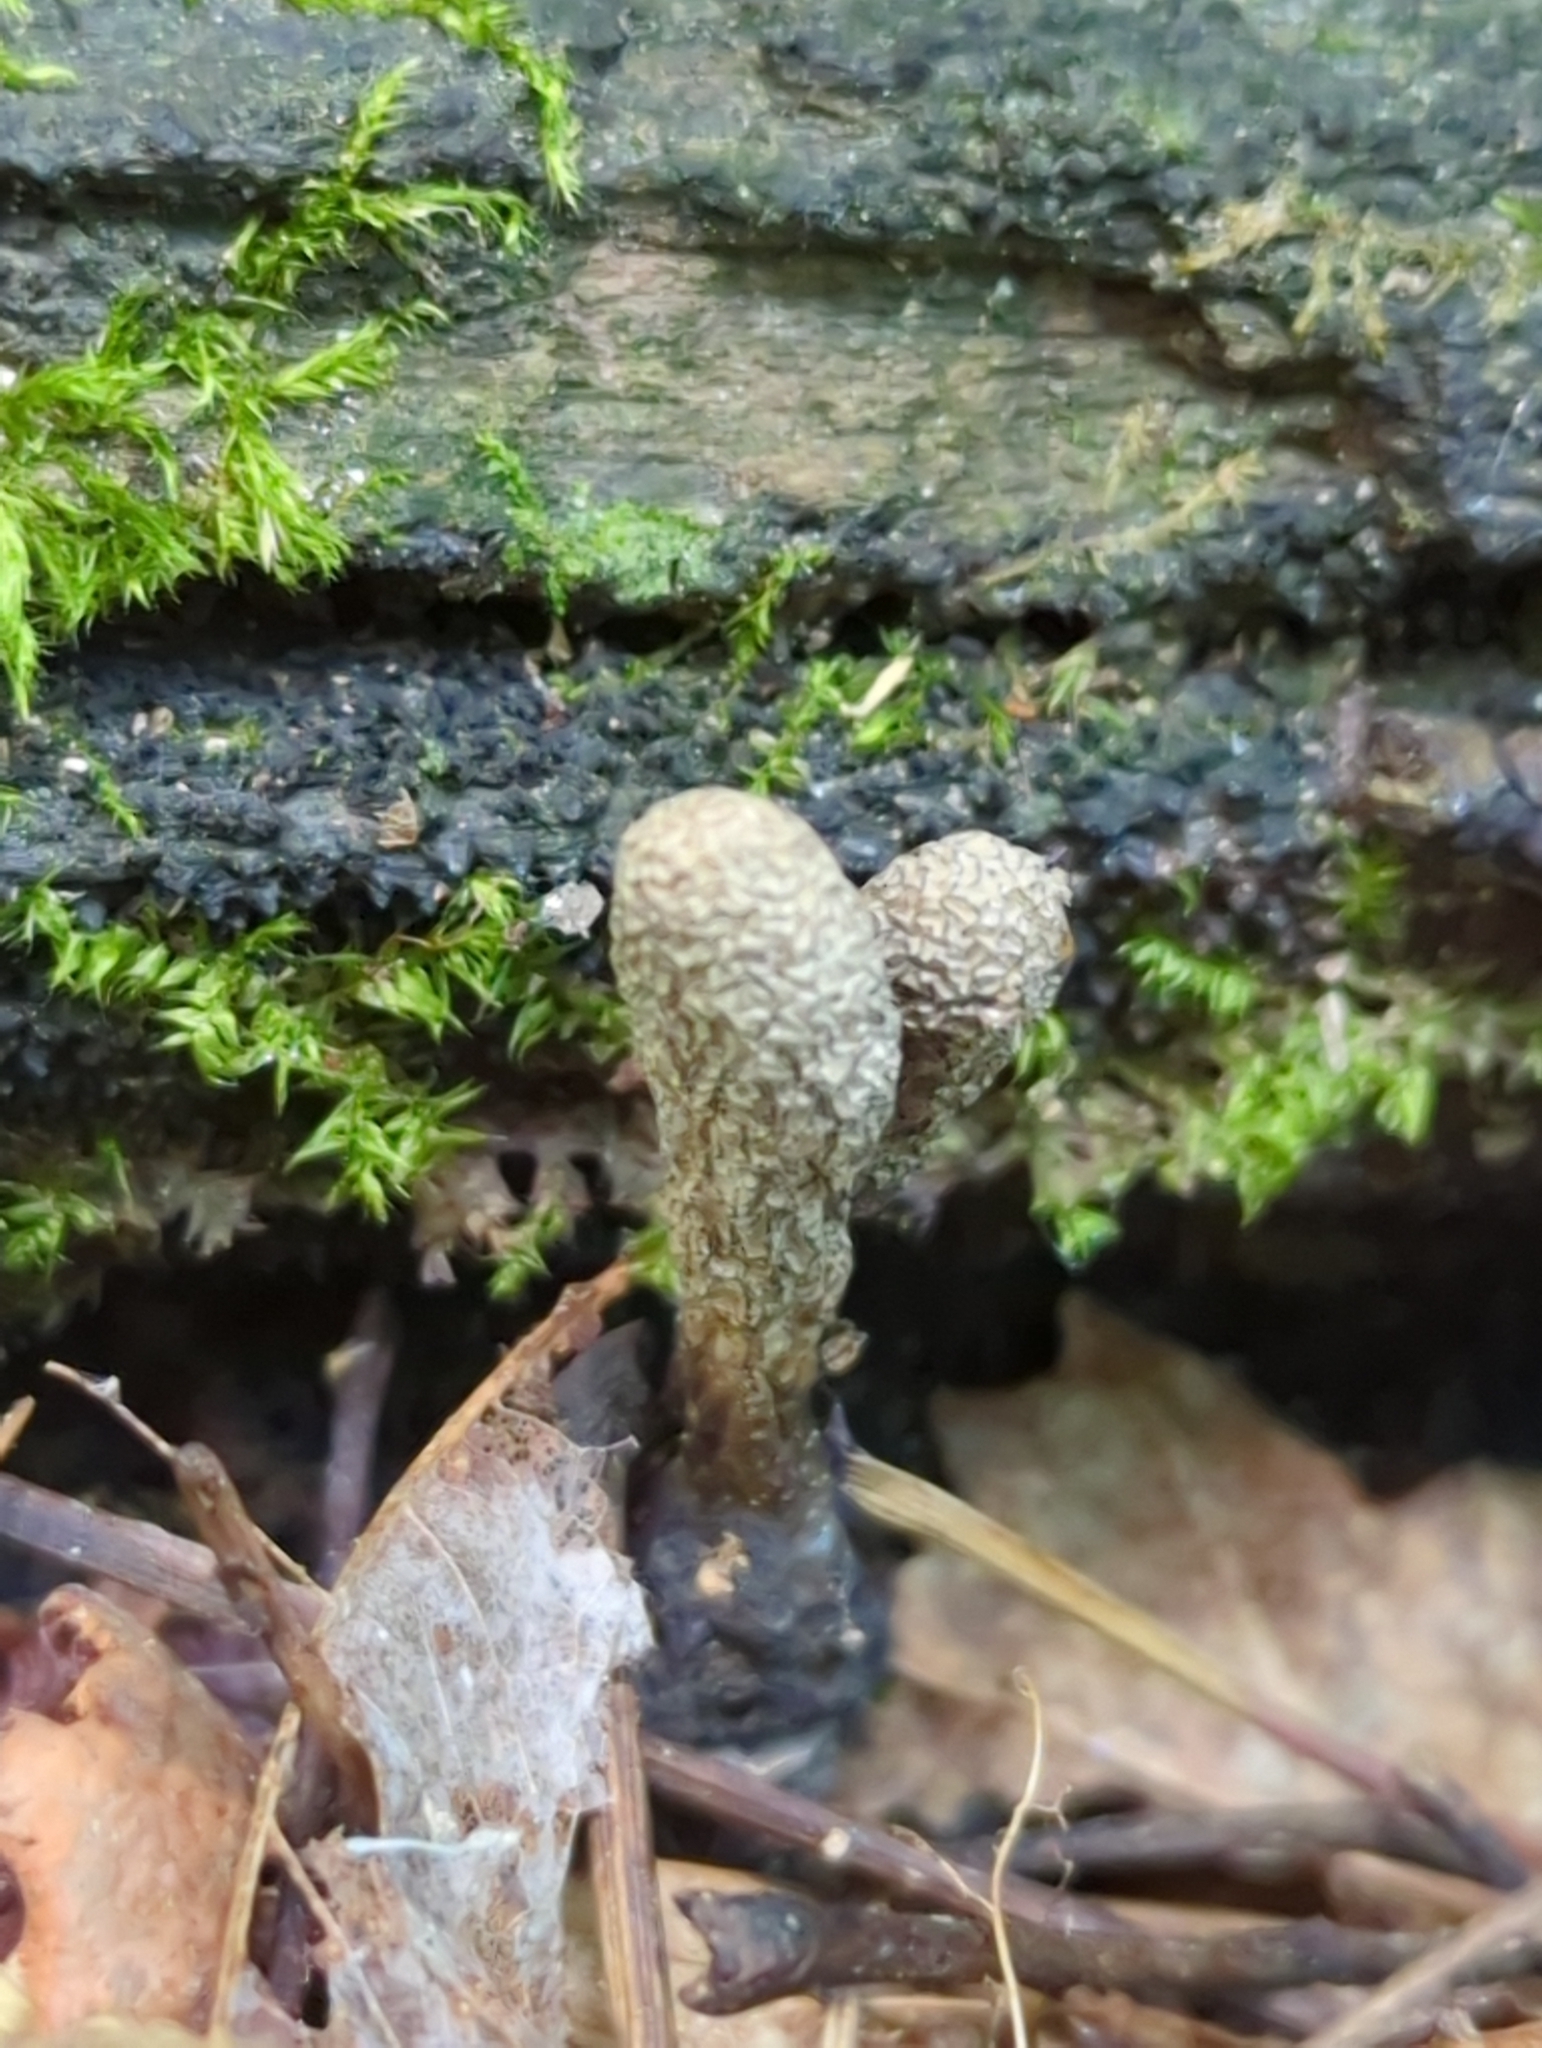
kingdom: Fungi
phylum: Ascomycota
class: Sordariomycetes
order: Xylariales
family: Xylariaceae
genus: Xylaria
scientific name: Xylaria ellisii
